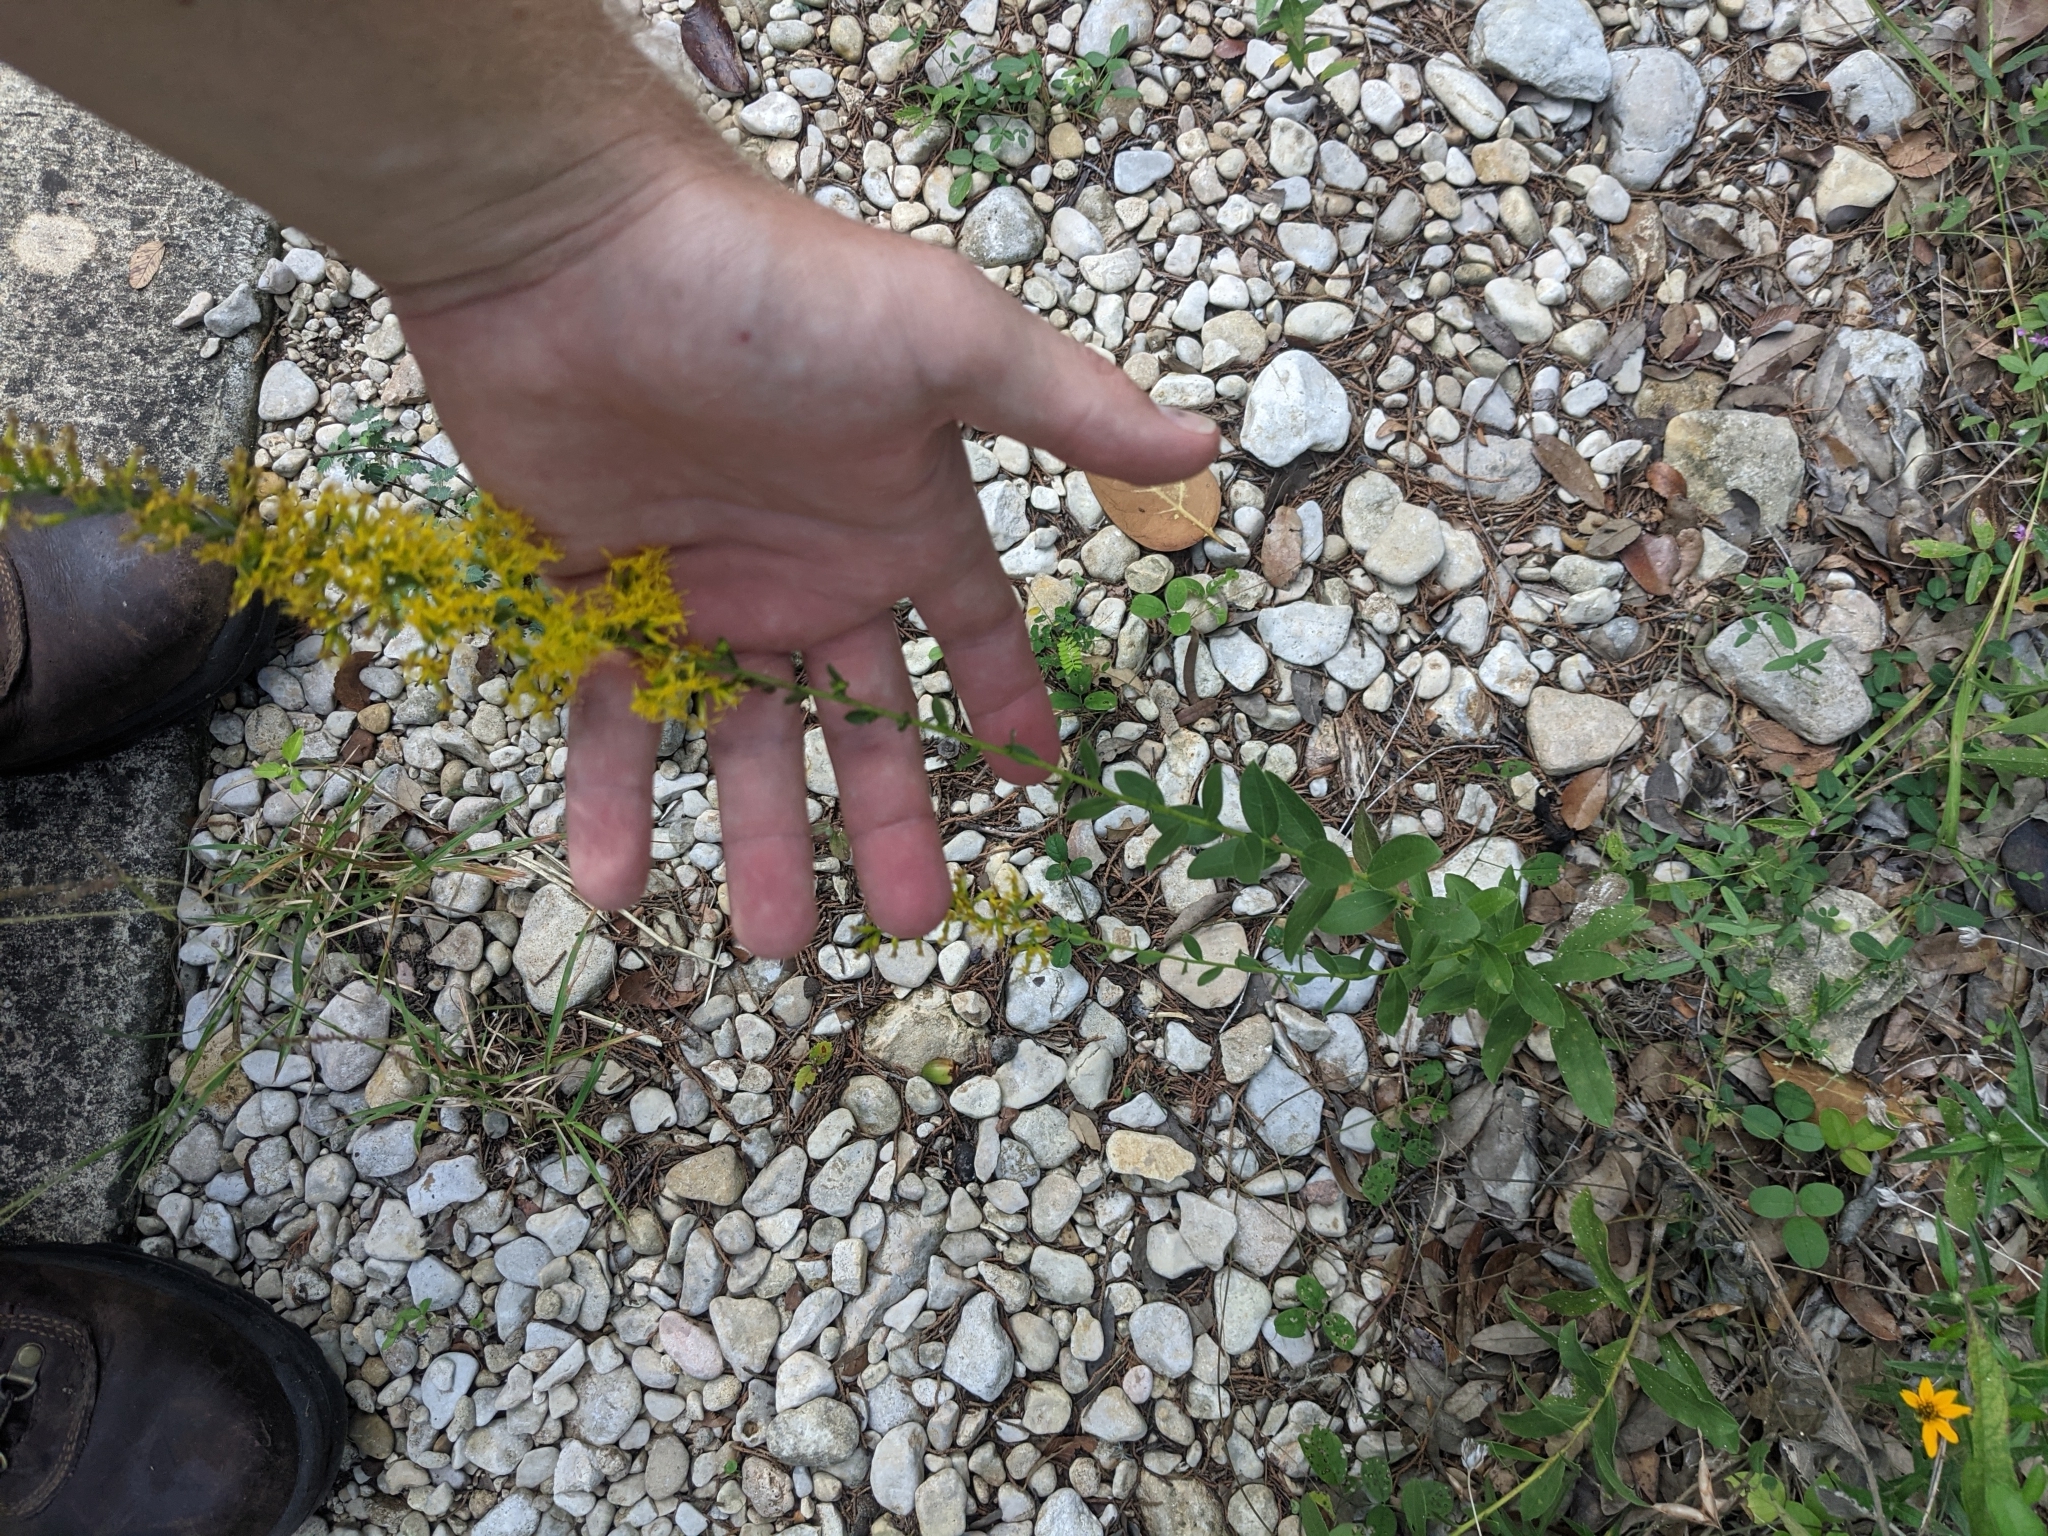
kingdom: Plantae
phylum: Tracheophyta
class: Magnoliopsida
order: Asterales
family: Asteraceae
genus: Solidago
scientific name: Solidago radula
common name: Western rough goldenrod
